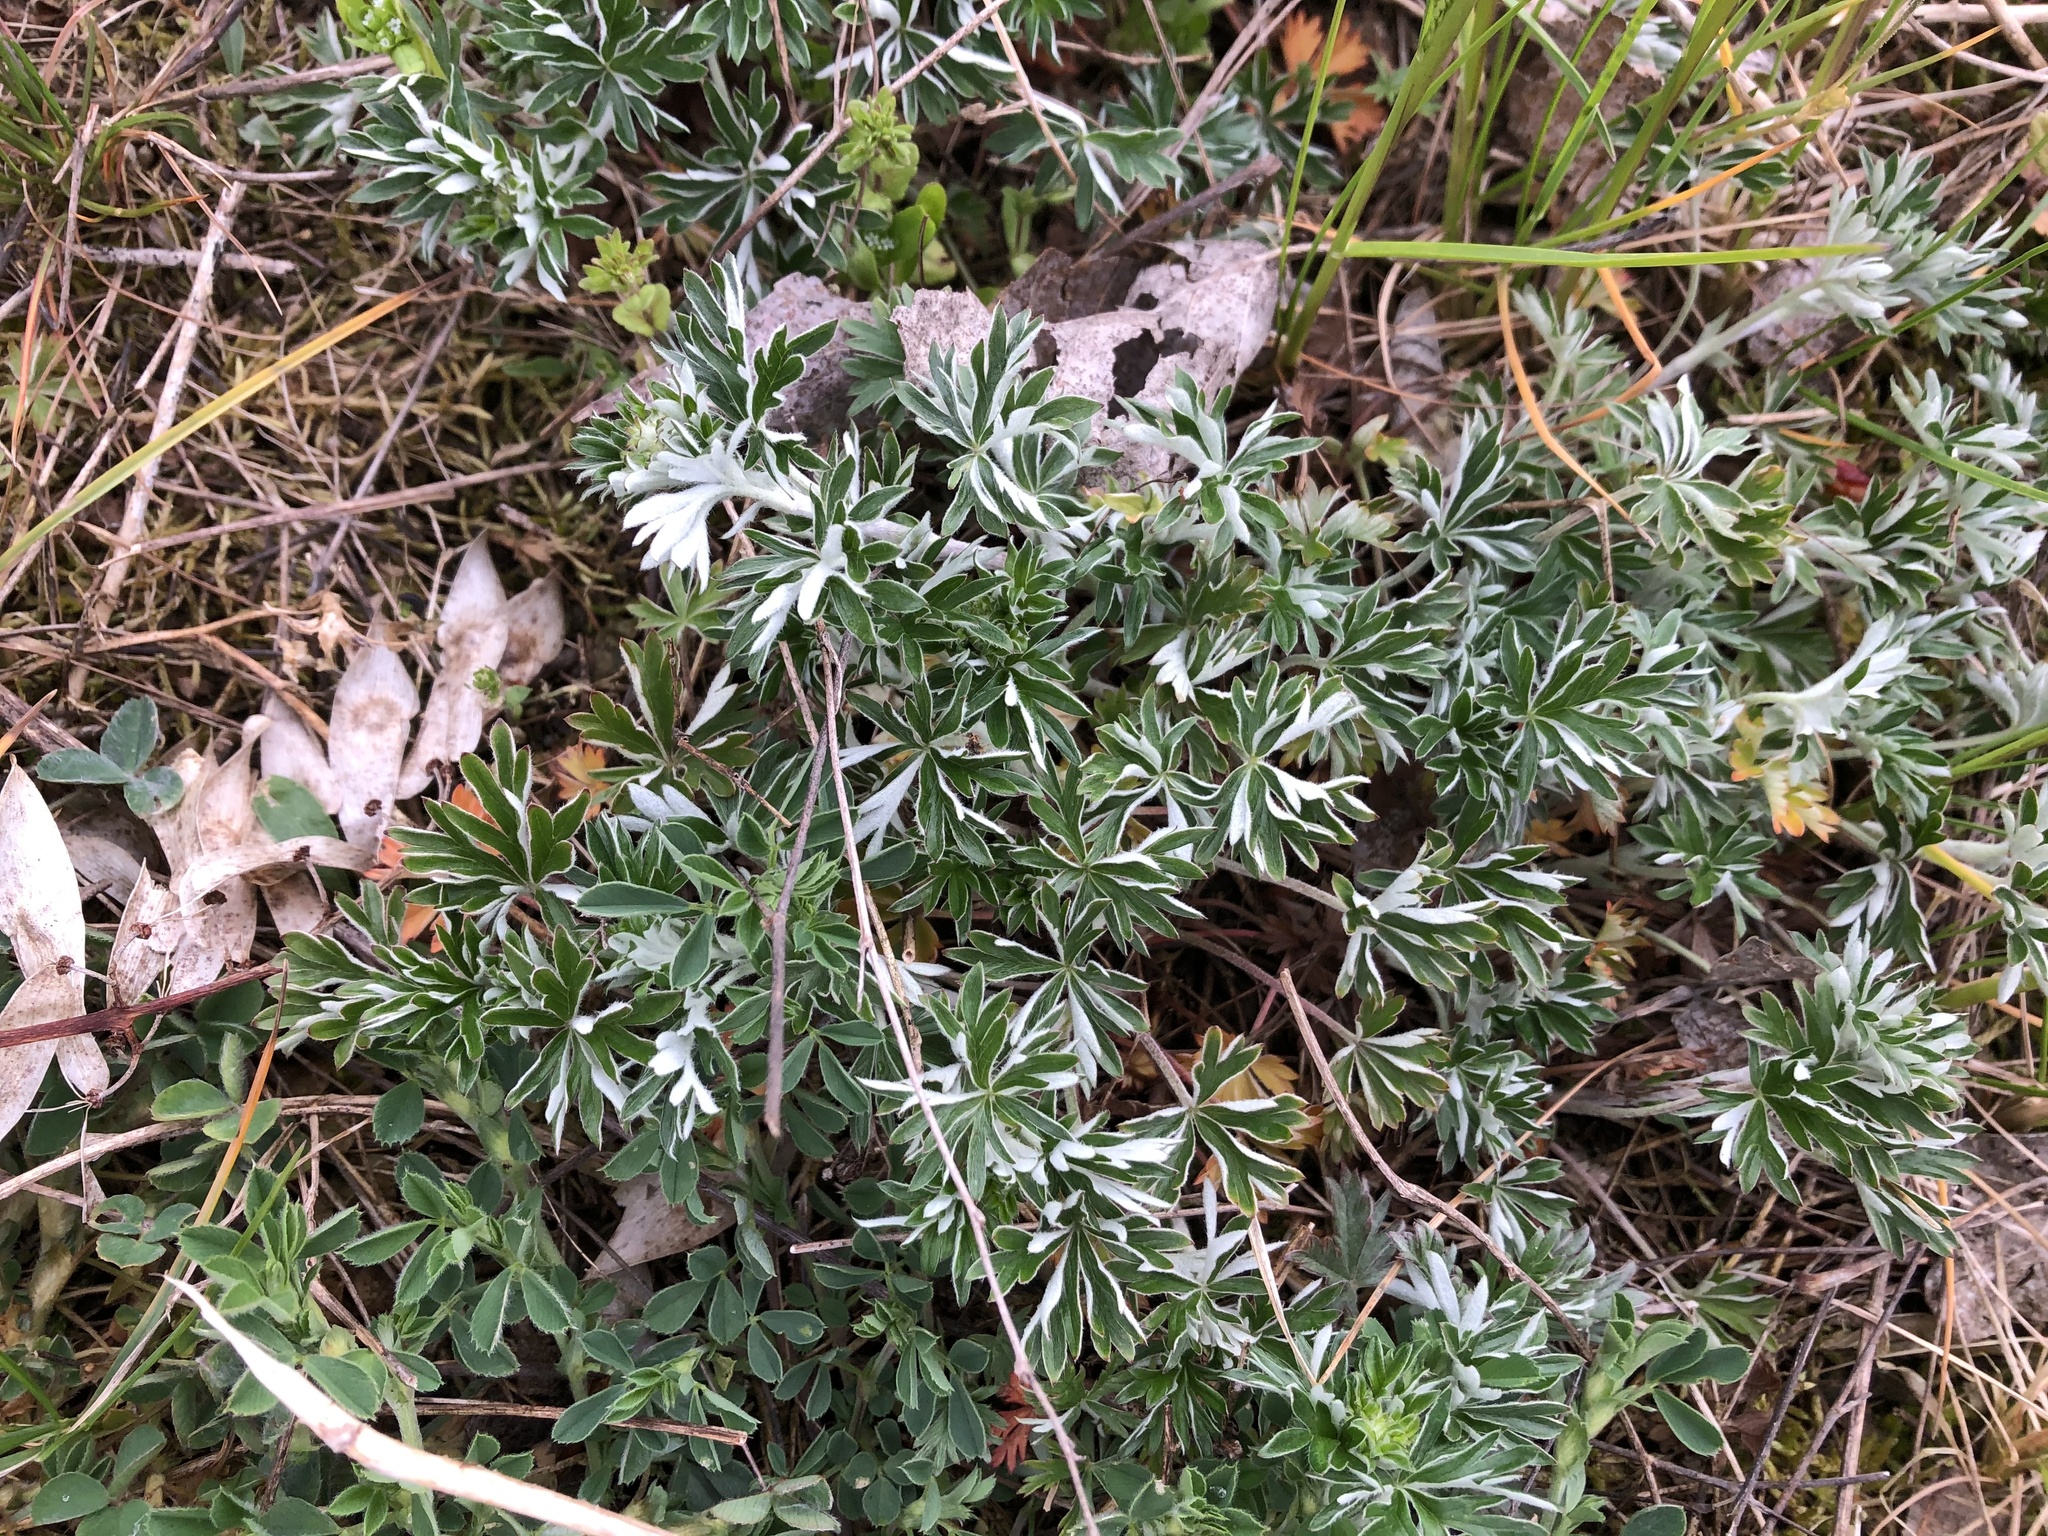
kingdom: Plantae
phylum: Tracheophyta
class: Magnoliopsida
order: Rosales
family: Rosaceae
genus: Potentilla
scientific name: Potentilla argentea
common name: Hoary cinquefoil
